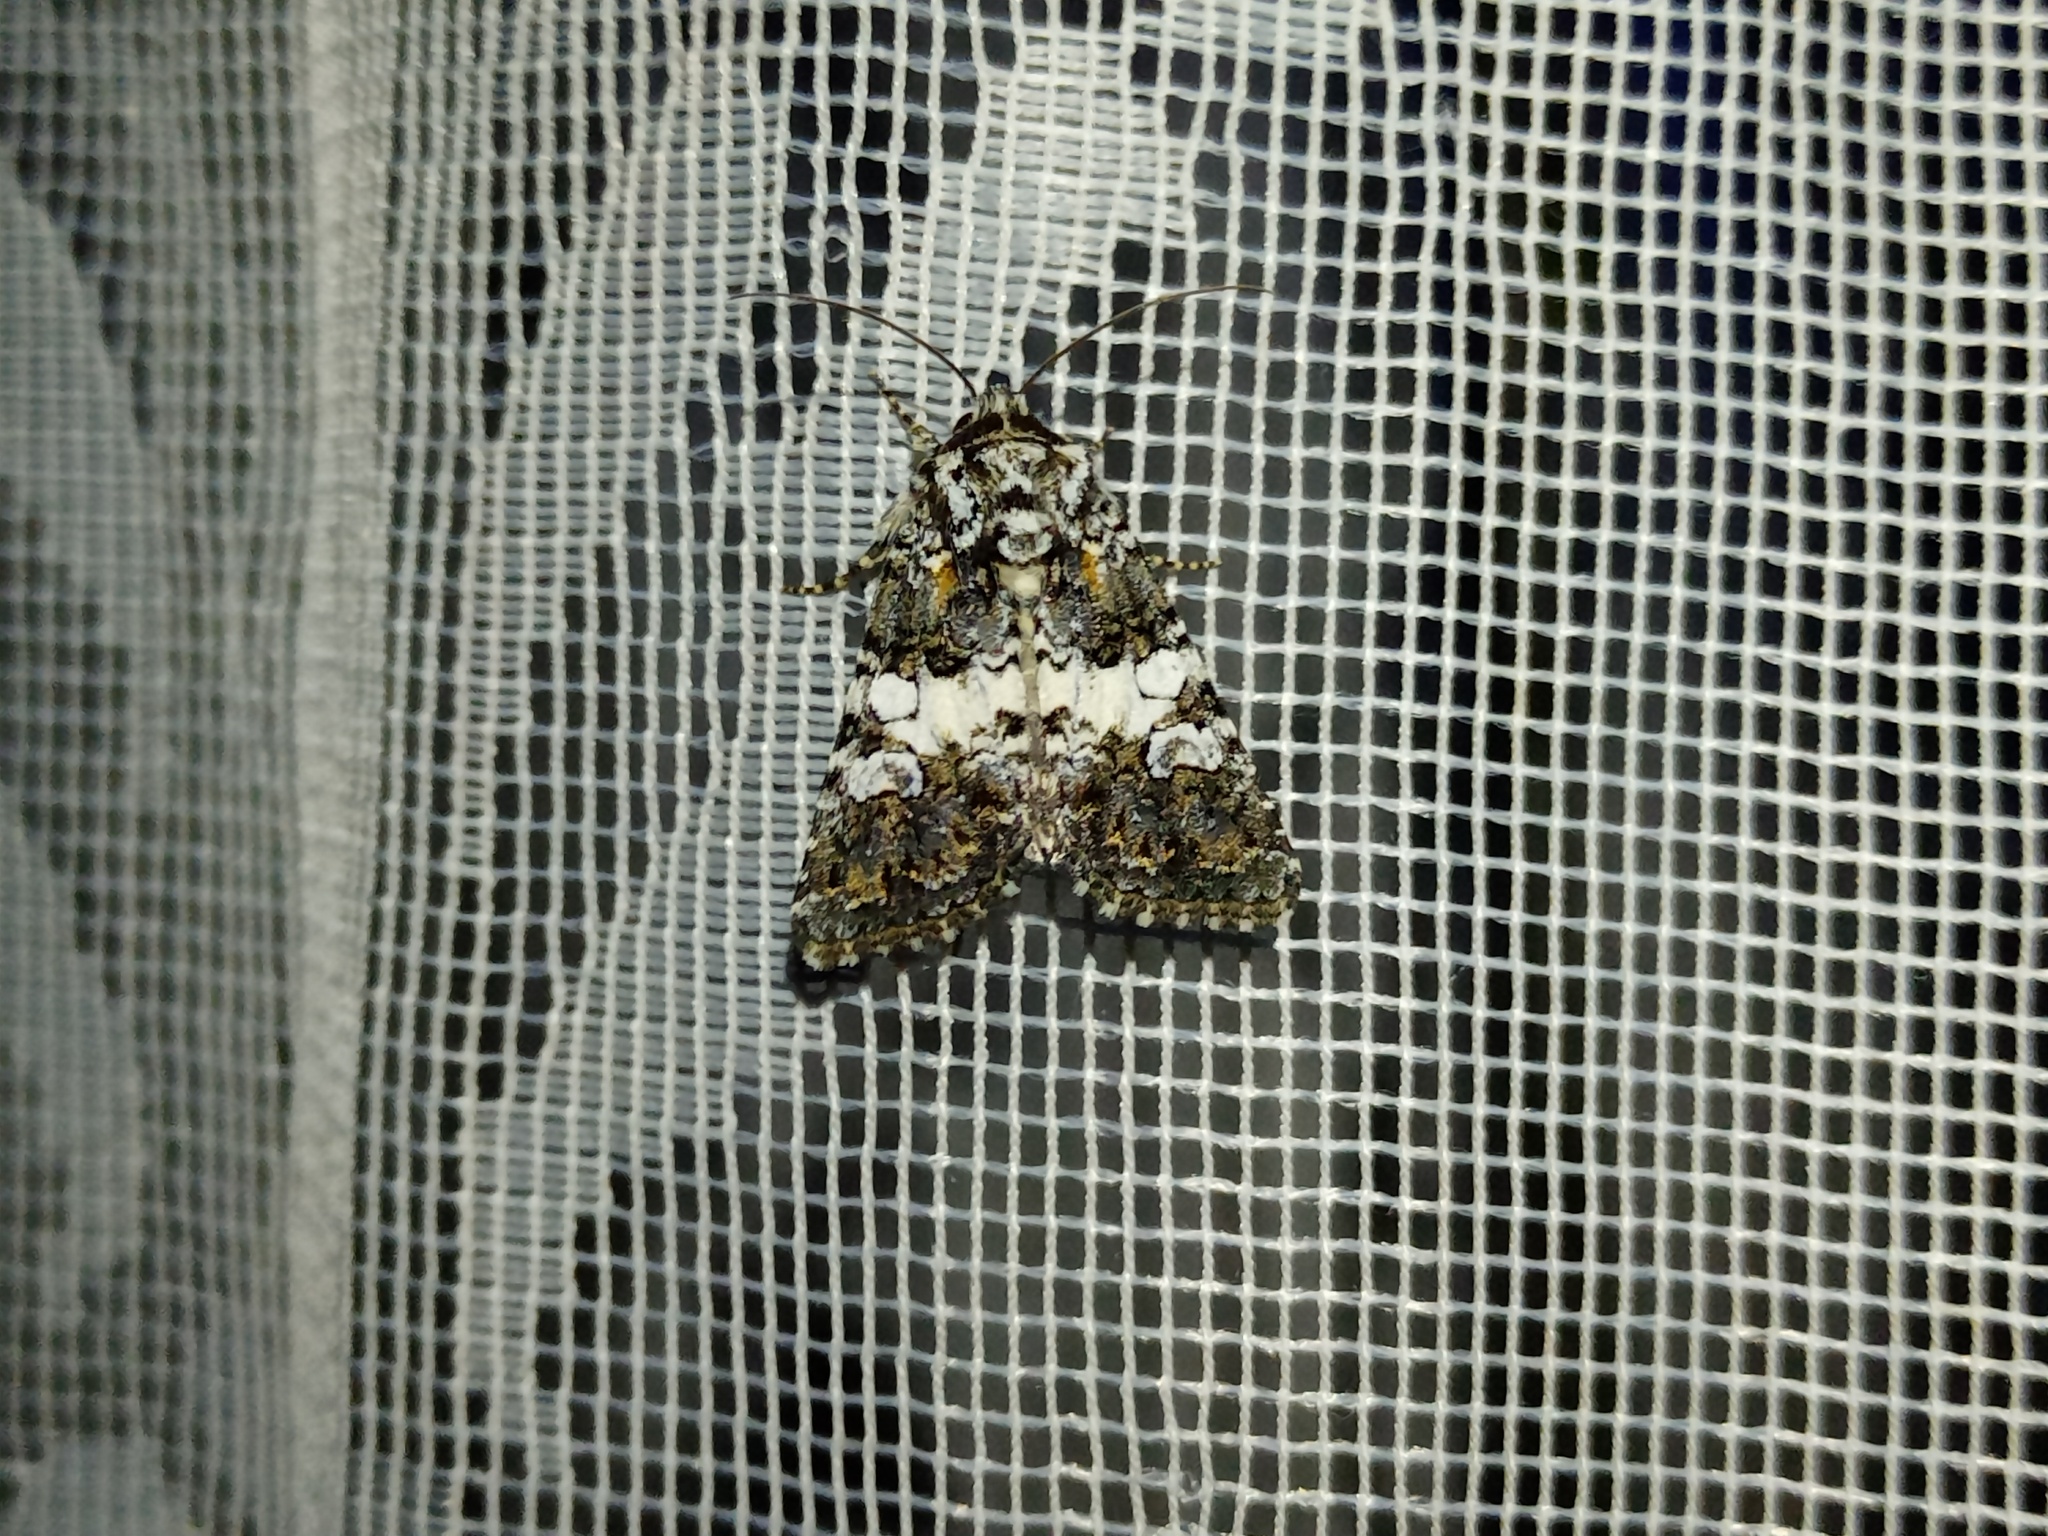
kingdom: Animalia
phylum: Arthropoda
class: Insecta
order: Lepidoptera
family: Noctuidae
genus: Hadena
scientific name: Hadena compta
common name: Varied coronet
